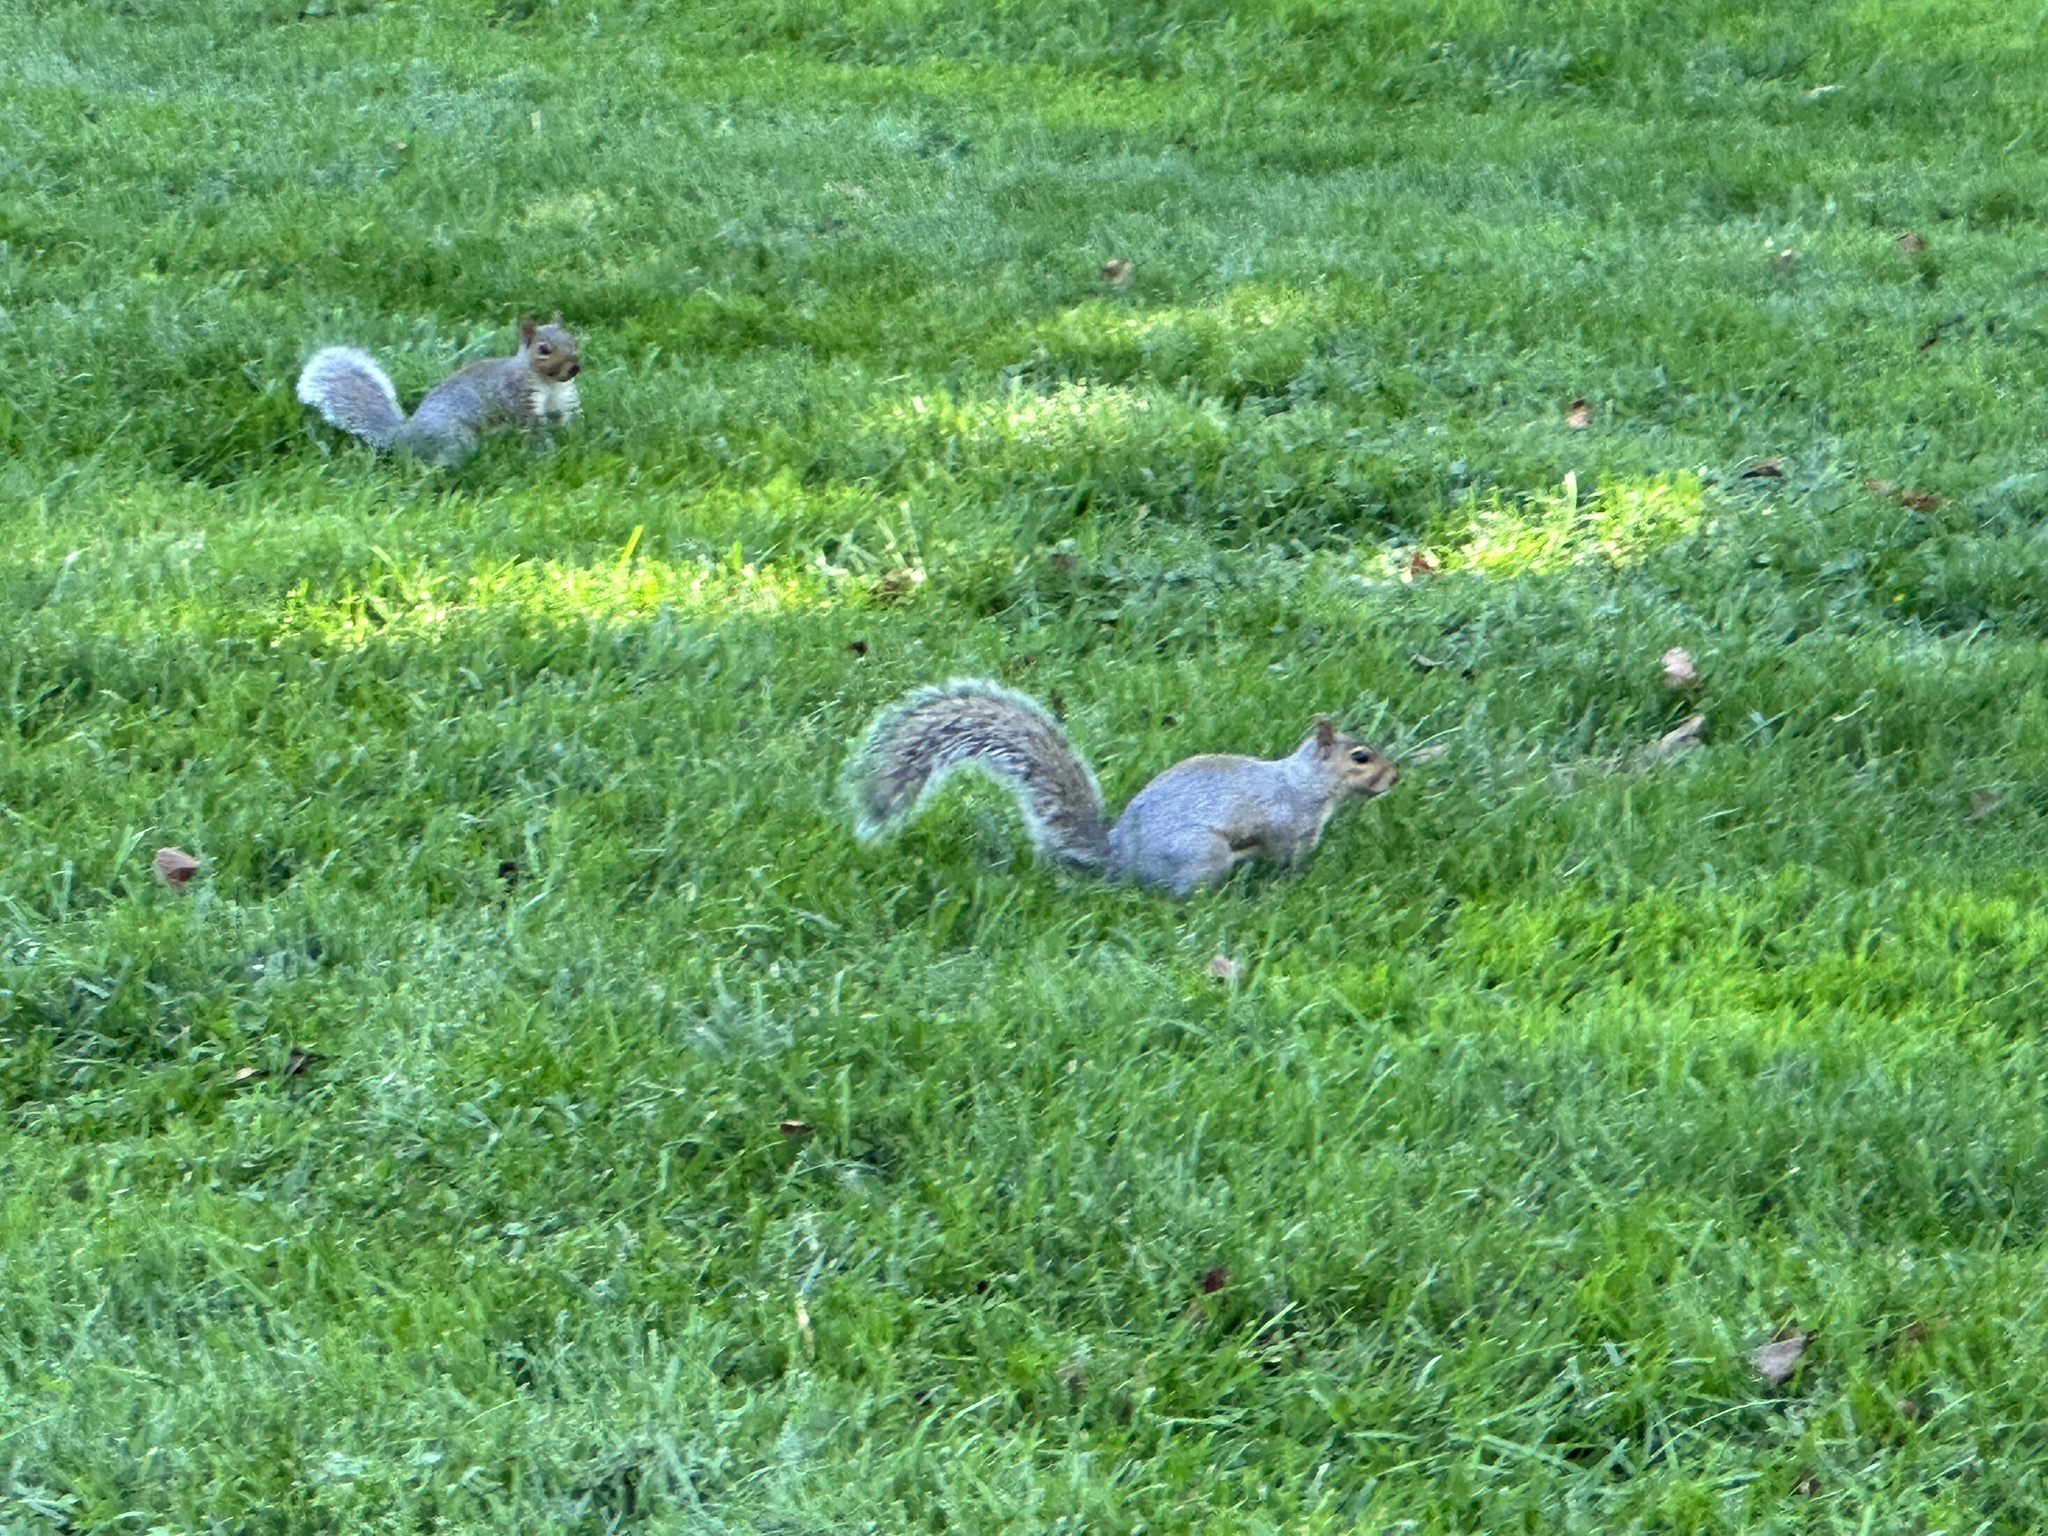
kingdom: Animalia
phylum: Chordata
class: Mammalia
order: Rodentia
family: Sciuridae
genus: Sciurus
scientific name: Sciurus carolinensis
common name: Eastern gray squirrel
